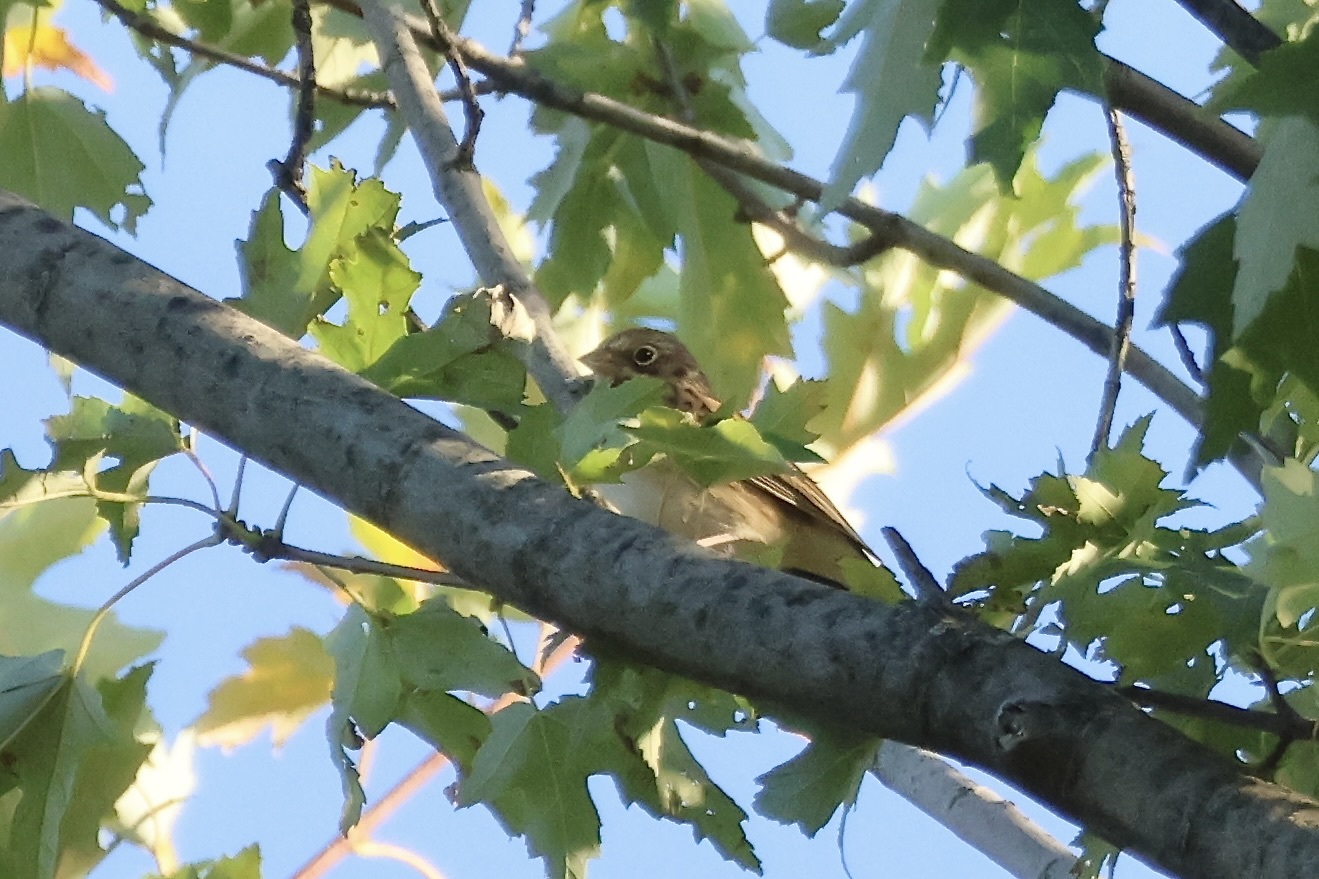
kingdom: Animalia
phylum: Chordata
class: Aves
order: Passeriformes
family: Passerellidae
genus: Pooecetes
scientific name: Pooecetes gramineus
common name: Vesper sparrow
